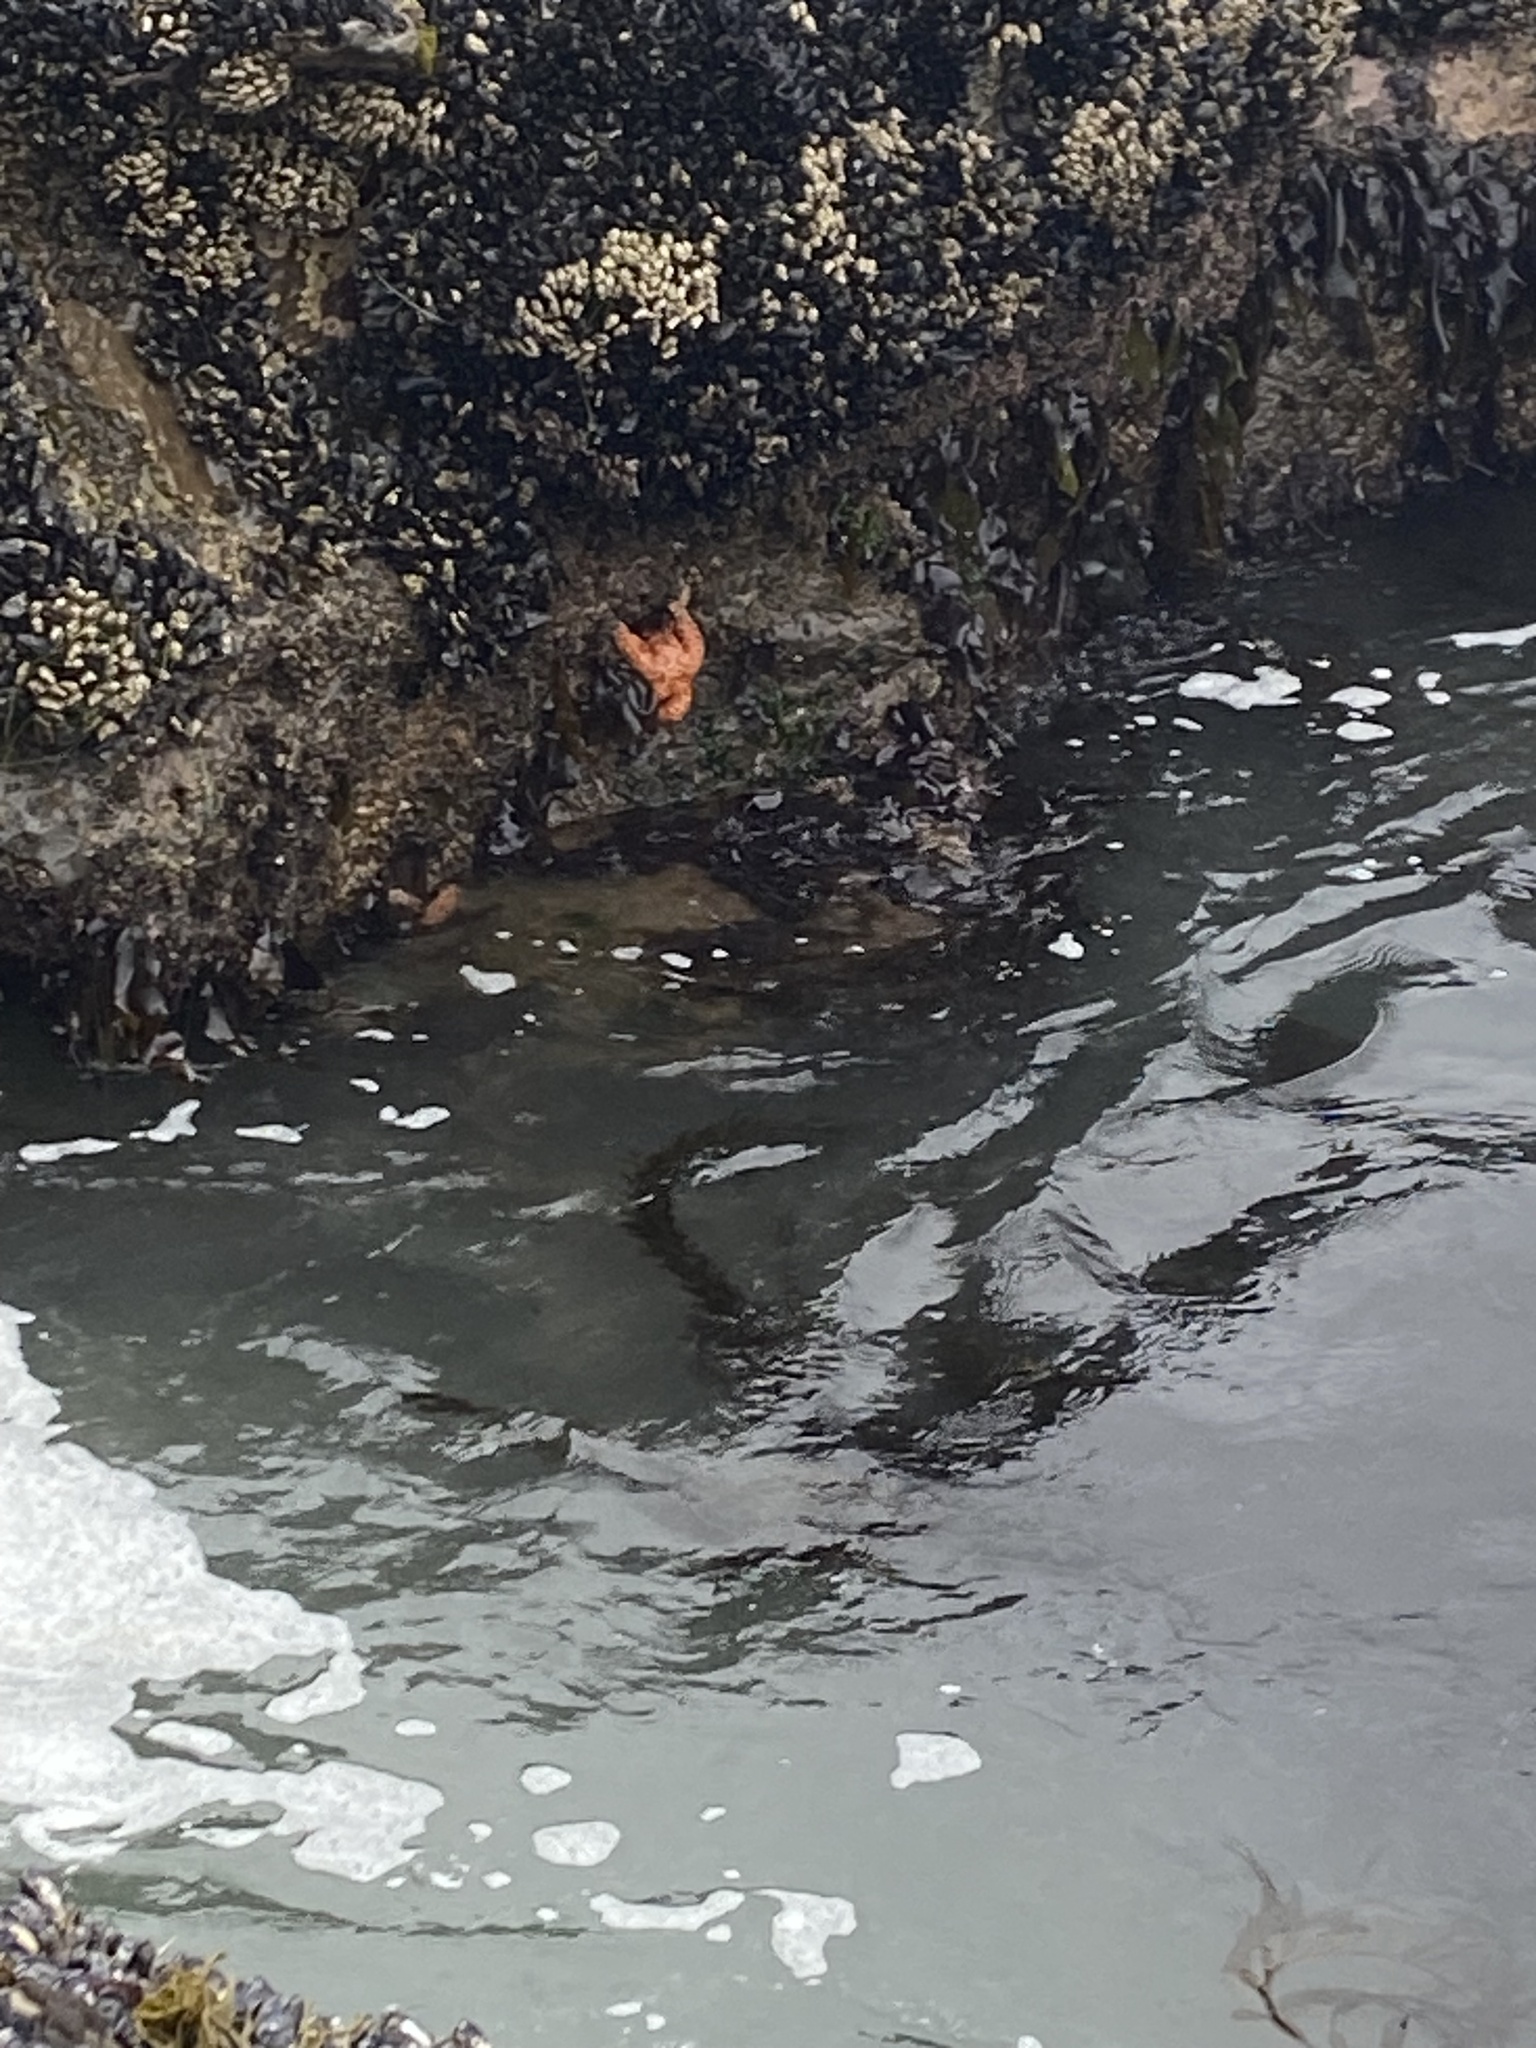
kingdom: Animalia
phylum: Echinodermata
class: Asteroidea
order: Forcipulatida
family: Asteriidae
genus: Pisaster
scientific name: Pisaster ochraceus
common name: Ochre stars
